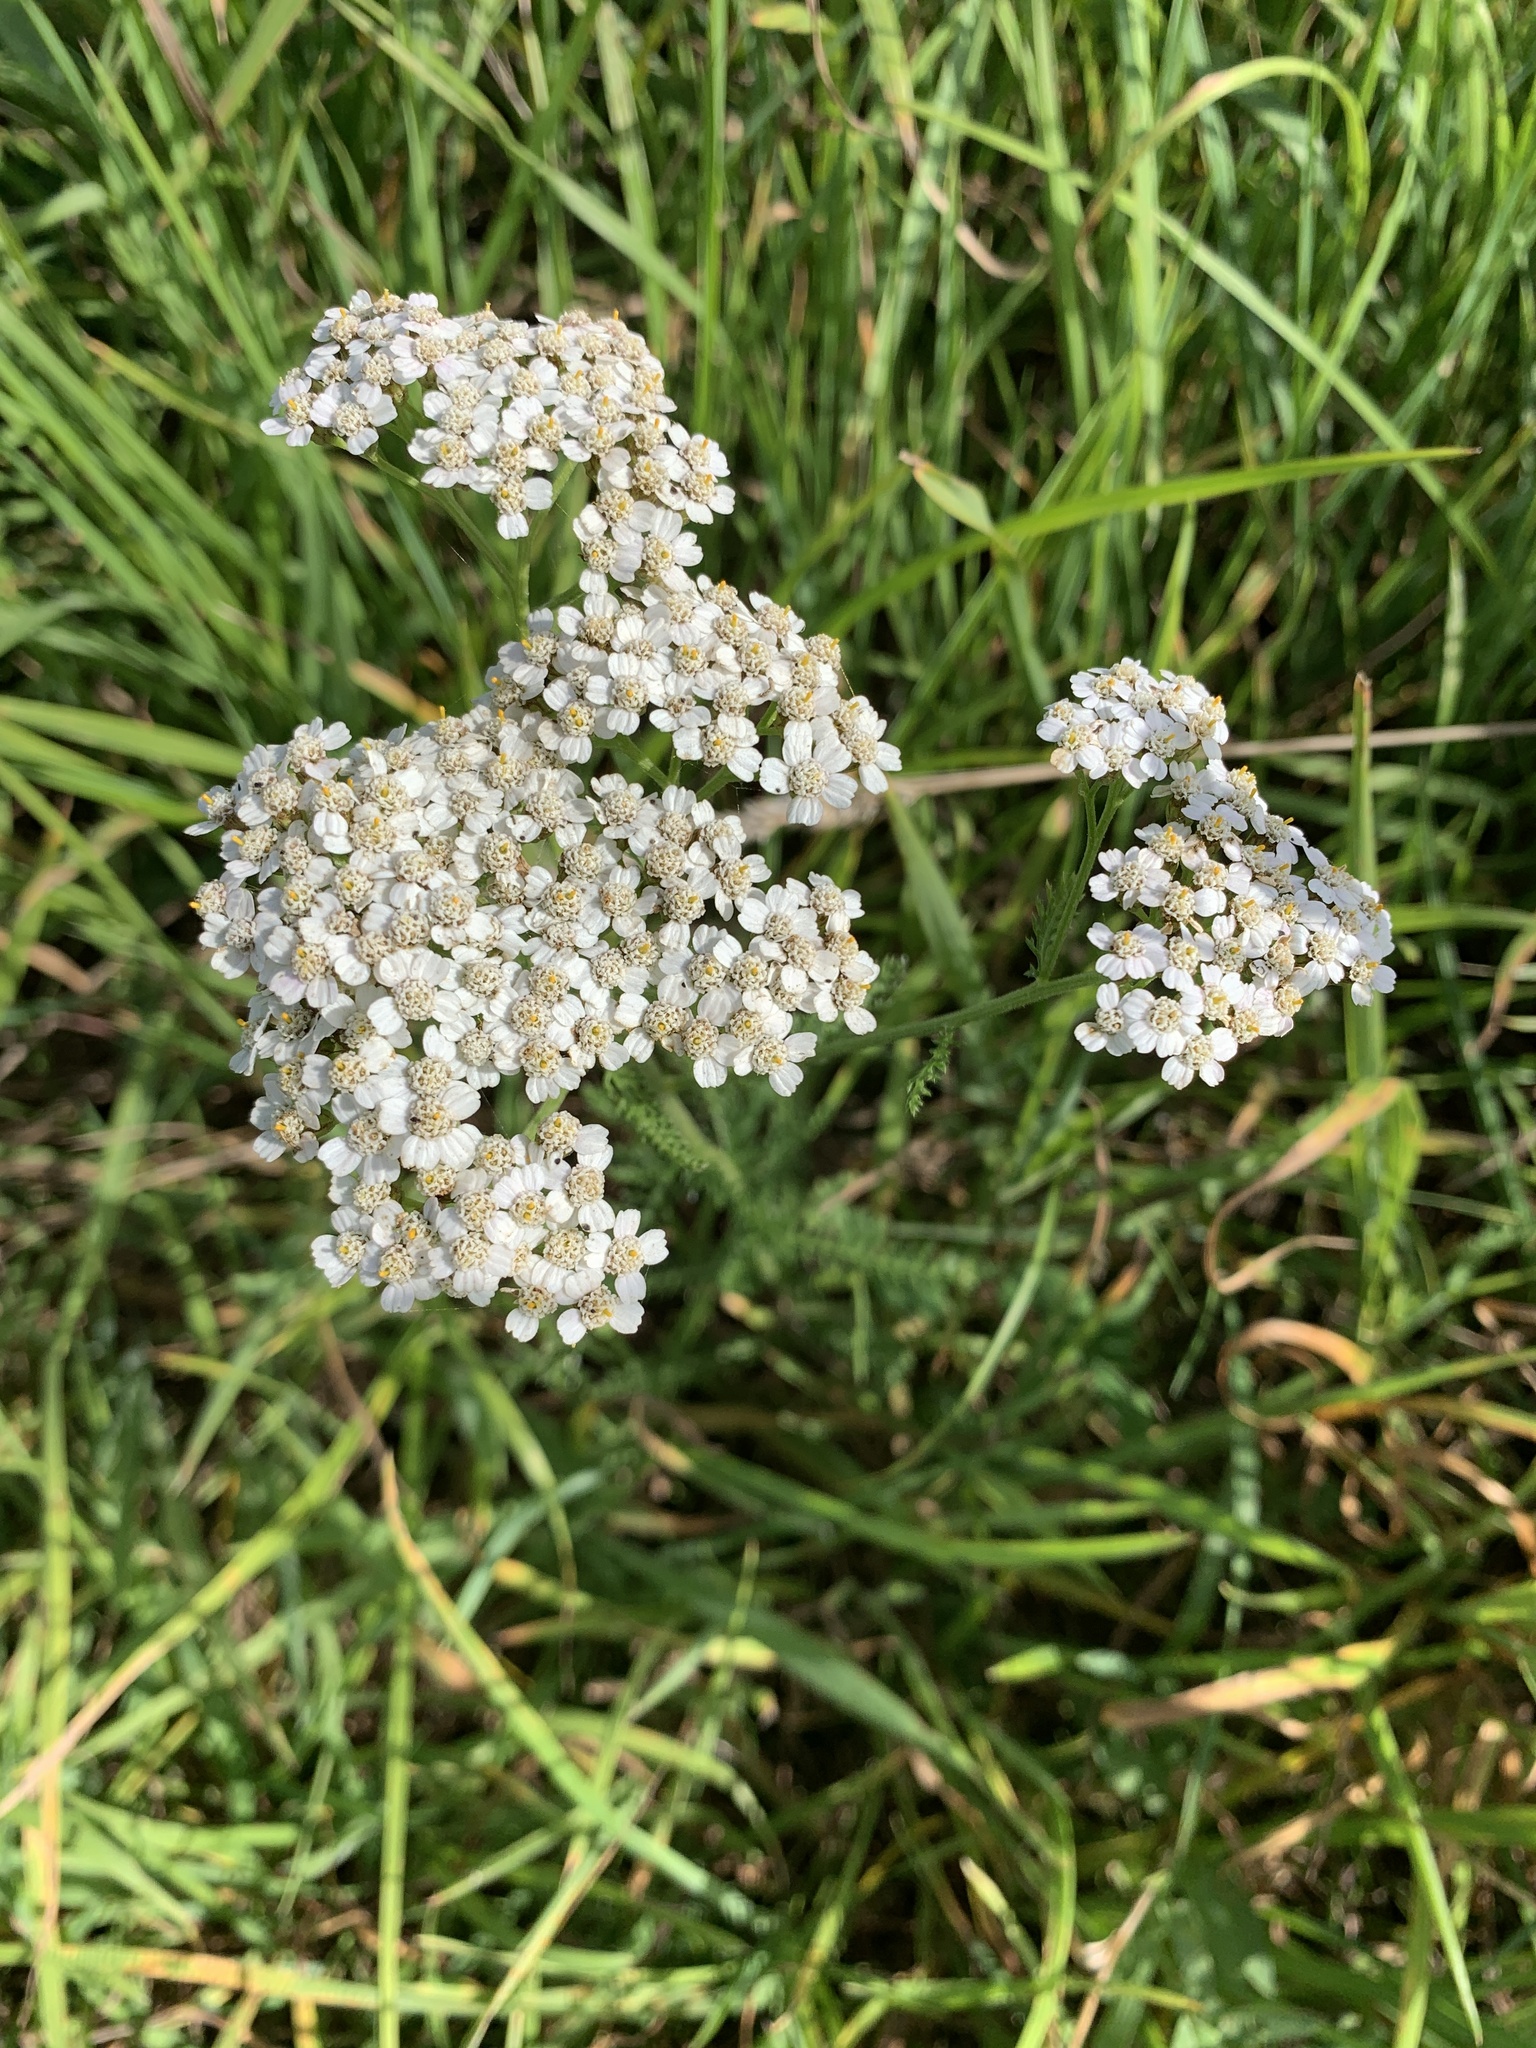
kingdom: Plantae
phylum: Tracheophyta
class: Magnoliopsida
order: Asterales
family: Asteraceae
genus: Achillea
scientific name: Achillea millefolium
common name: Yarrow
